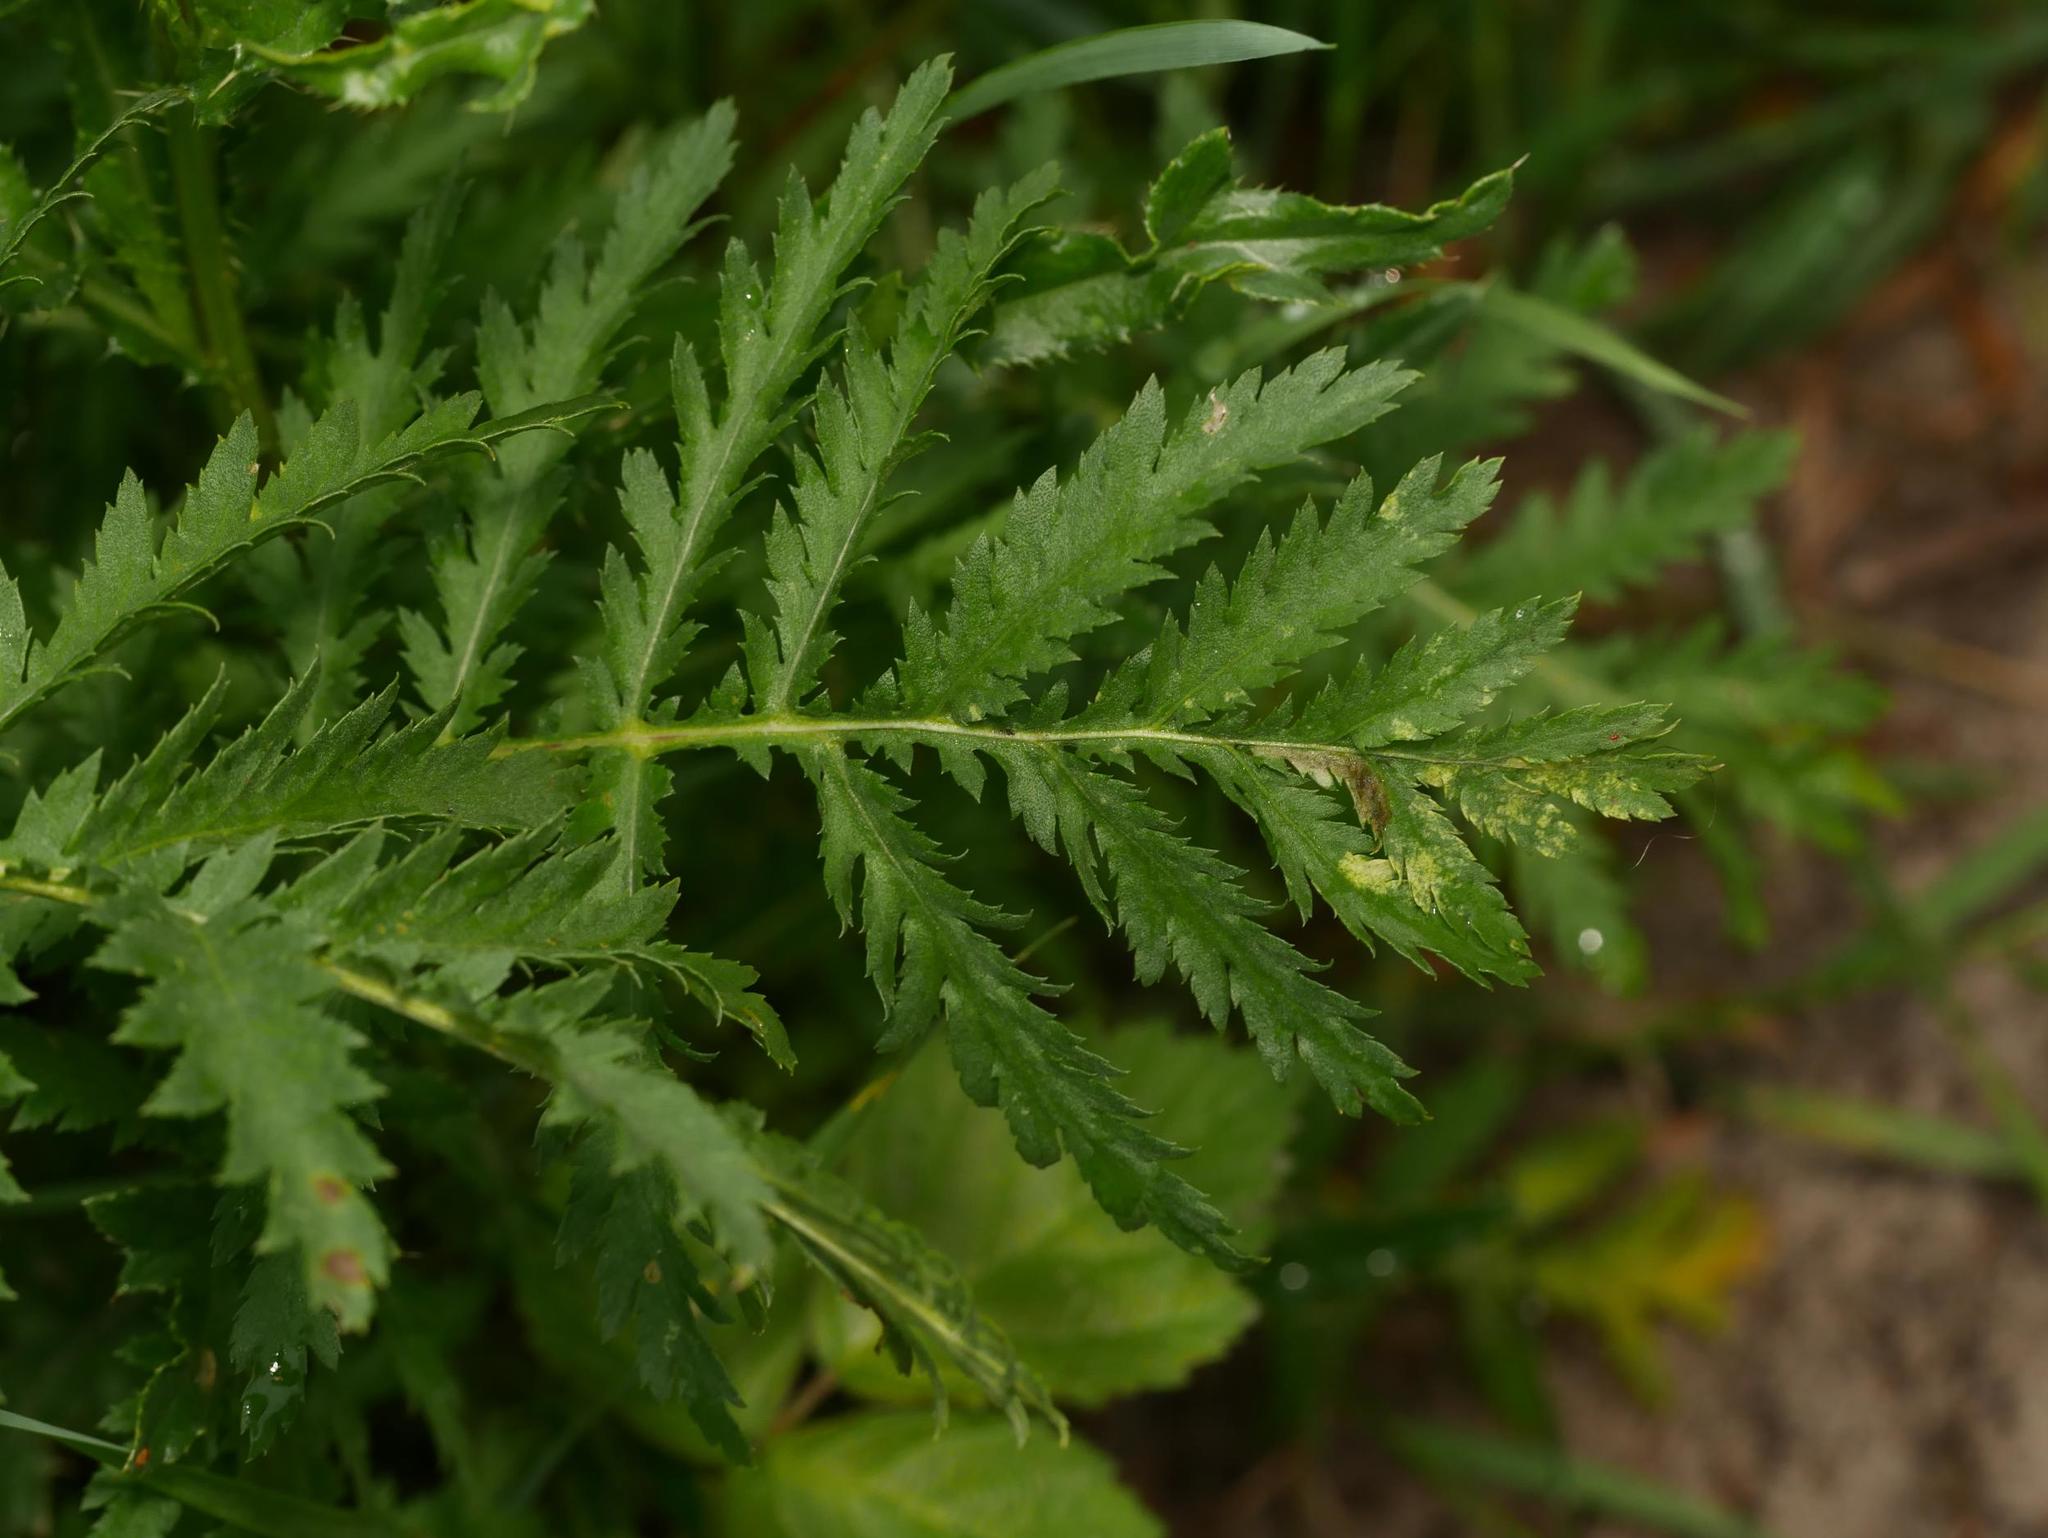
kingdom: Plantae
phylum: Tracheophyta
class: Magnoliopsida
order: Asterales
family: Asteraceae
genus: Tanacetum
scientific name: Tanacetum vulgare
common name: Common tansy
